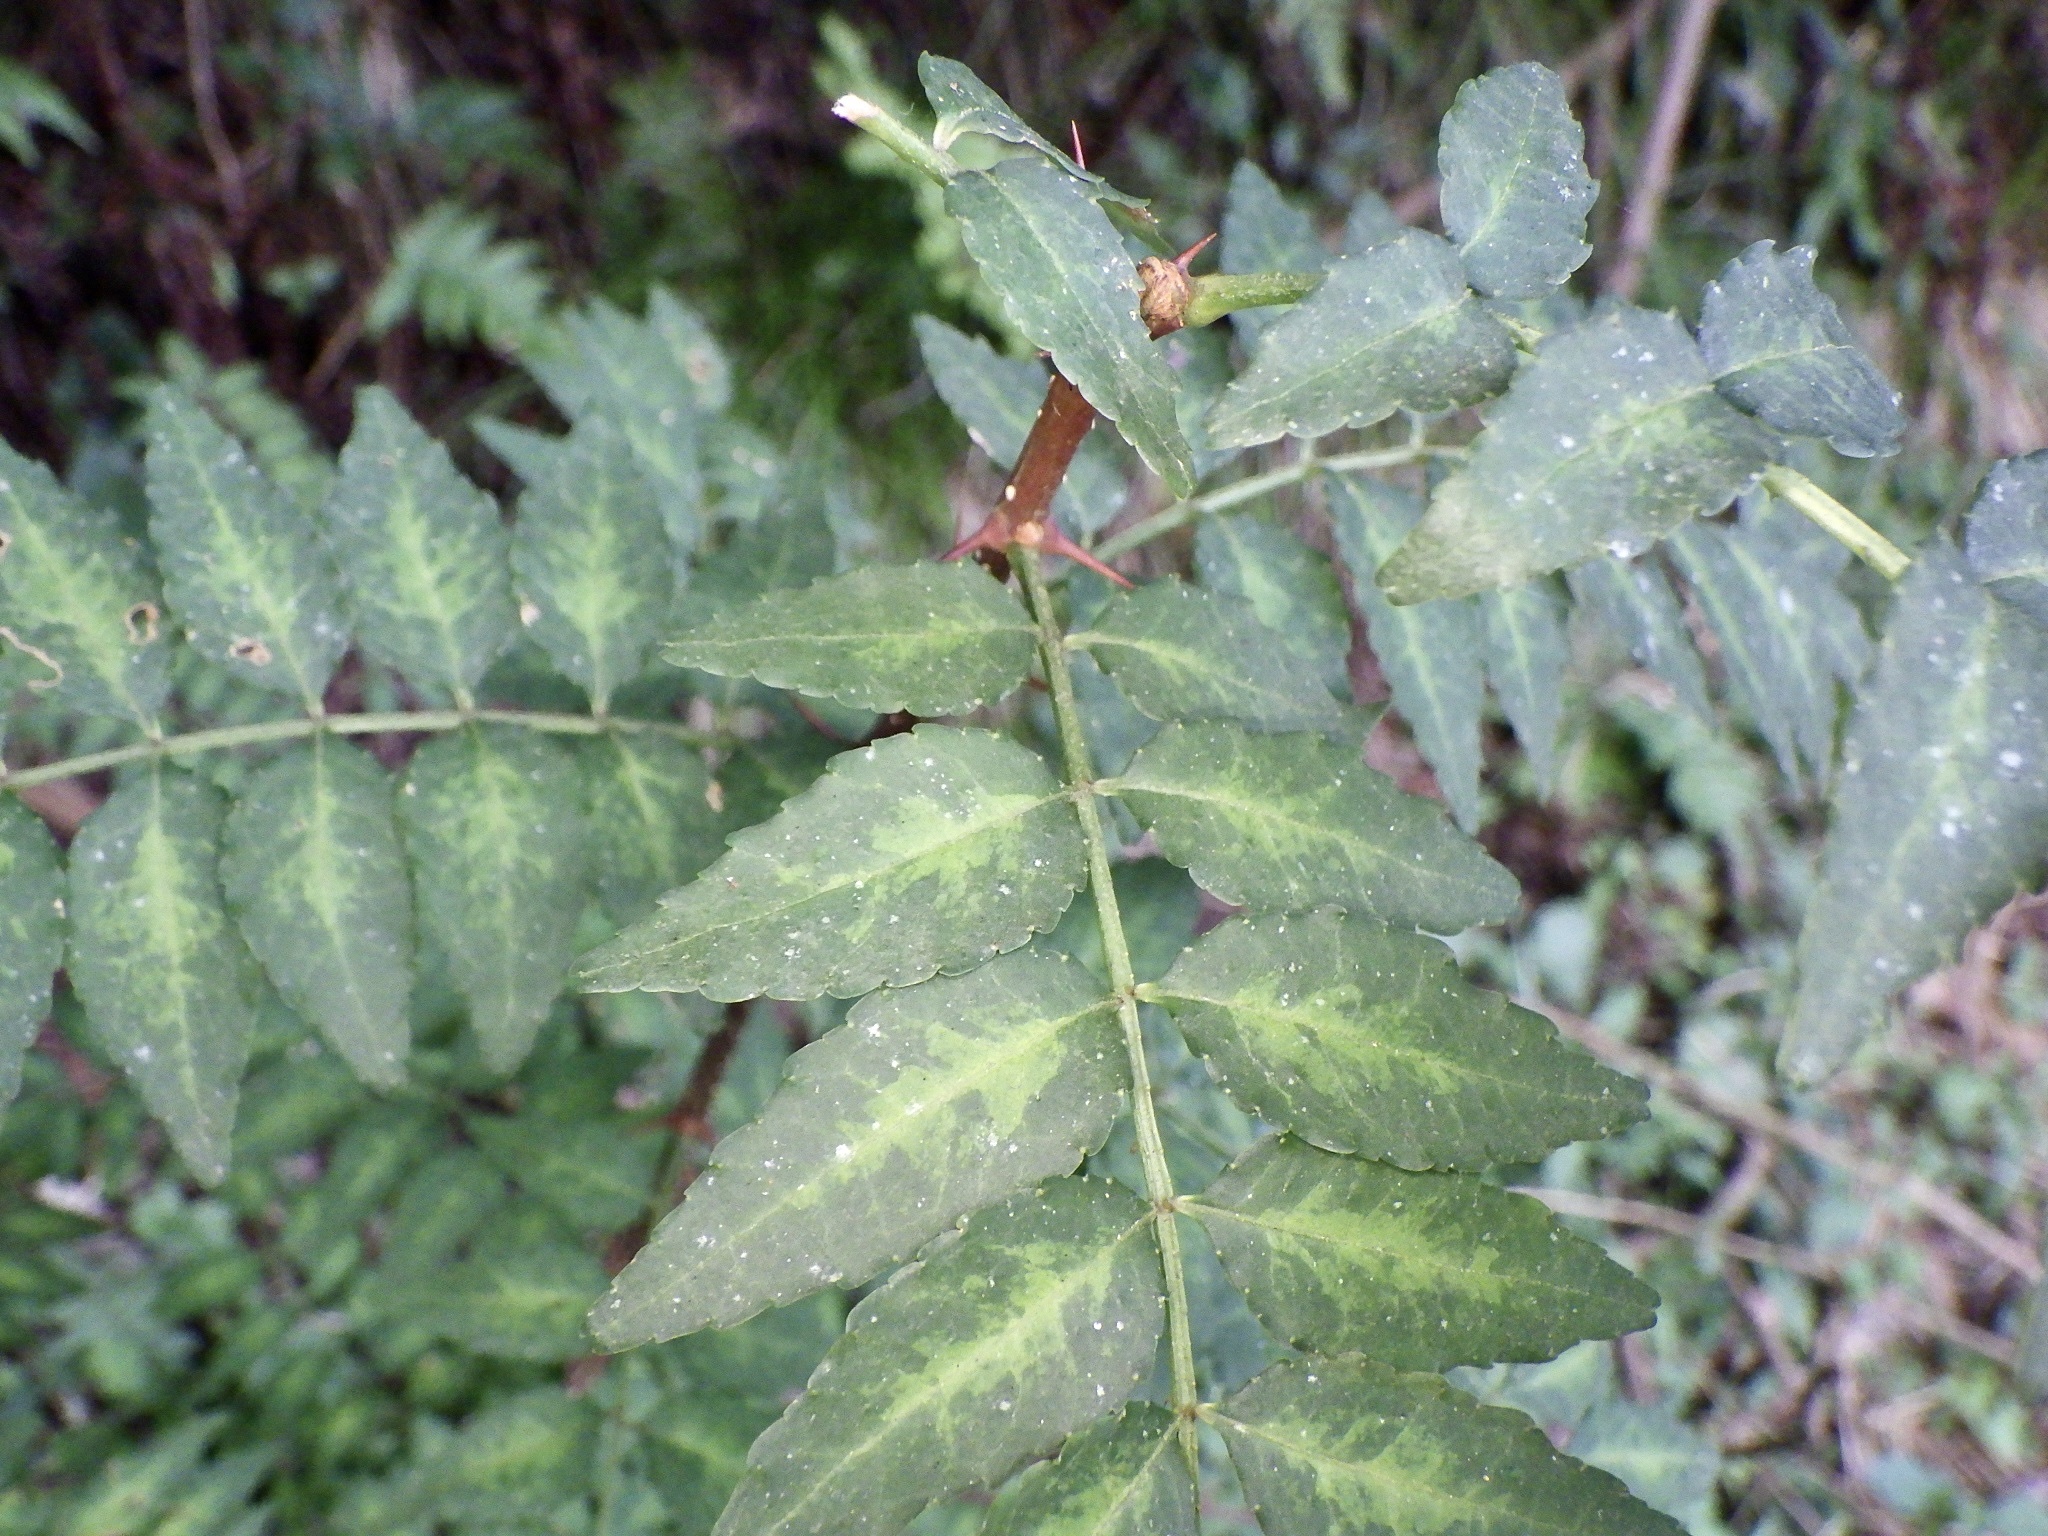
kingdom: Plantae
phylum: Tracheophyta
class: Magnoliopsida
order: Sapindales
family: Rutaceae
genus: Zanthoxylum
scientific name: Zanthoxylum piperitum
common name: Japanese-pepper
